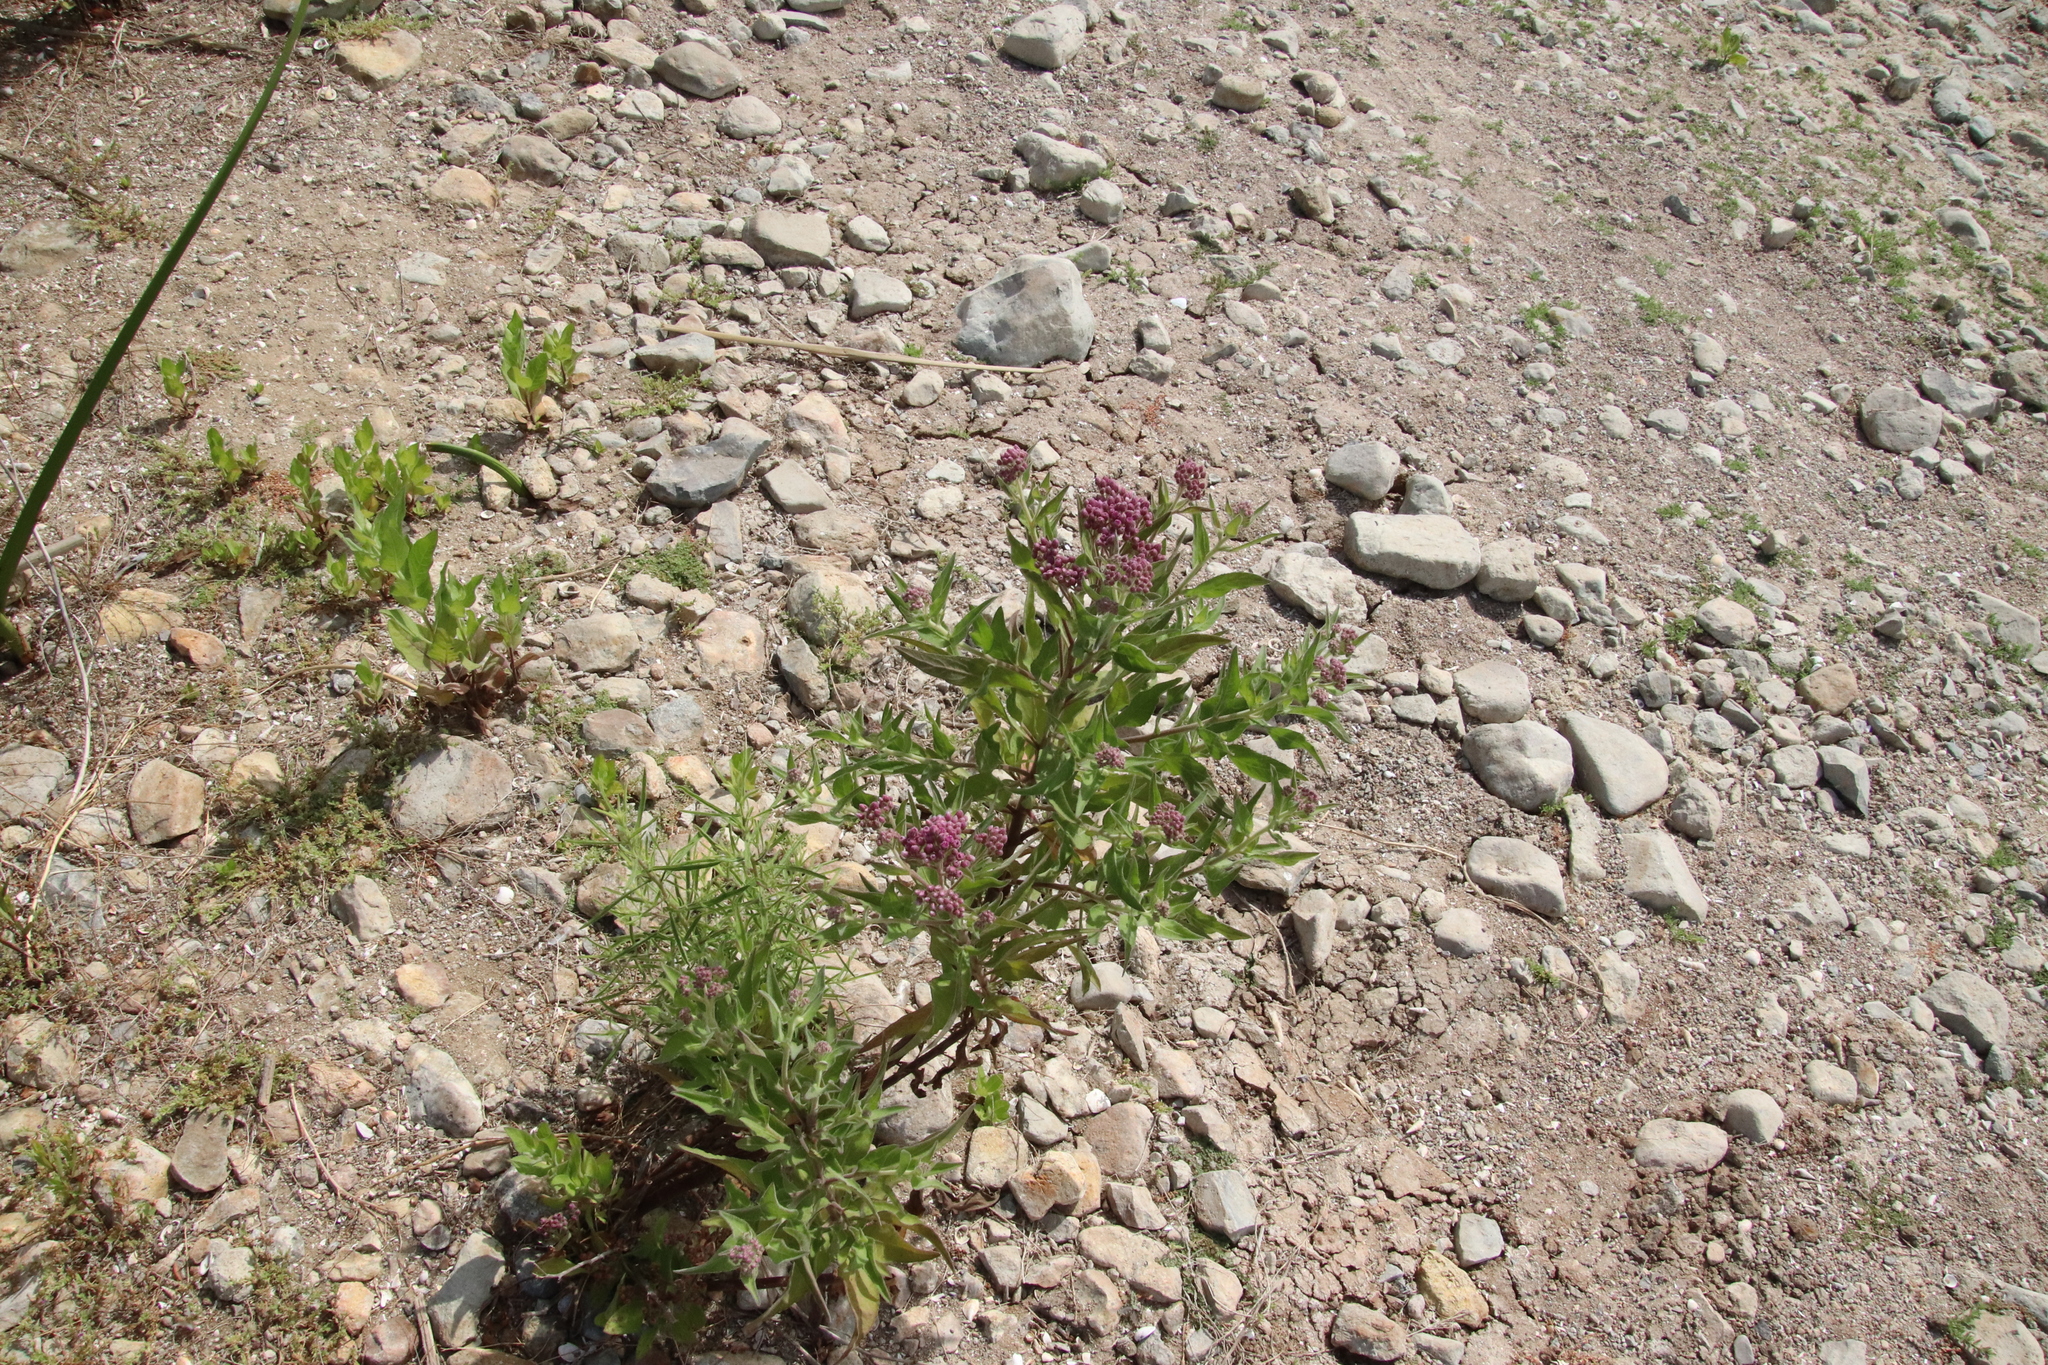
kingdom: Plantae
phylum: Tracheophyta
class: Magnoliopsida
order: Asterales
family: Asteraceae
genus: Pluchea
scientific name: Pluchea odorata
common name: Saltmarsh fleabane
